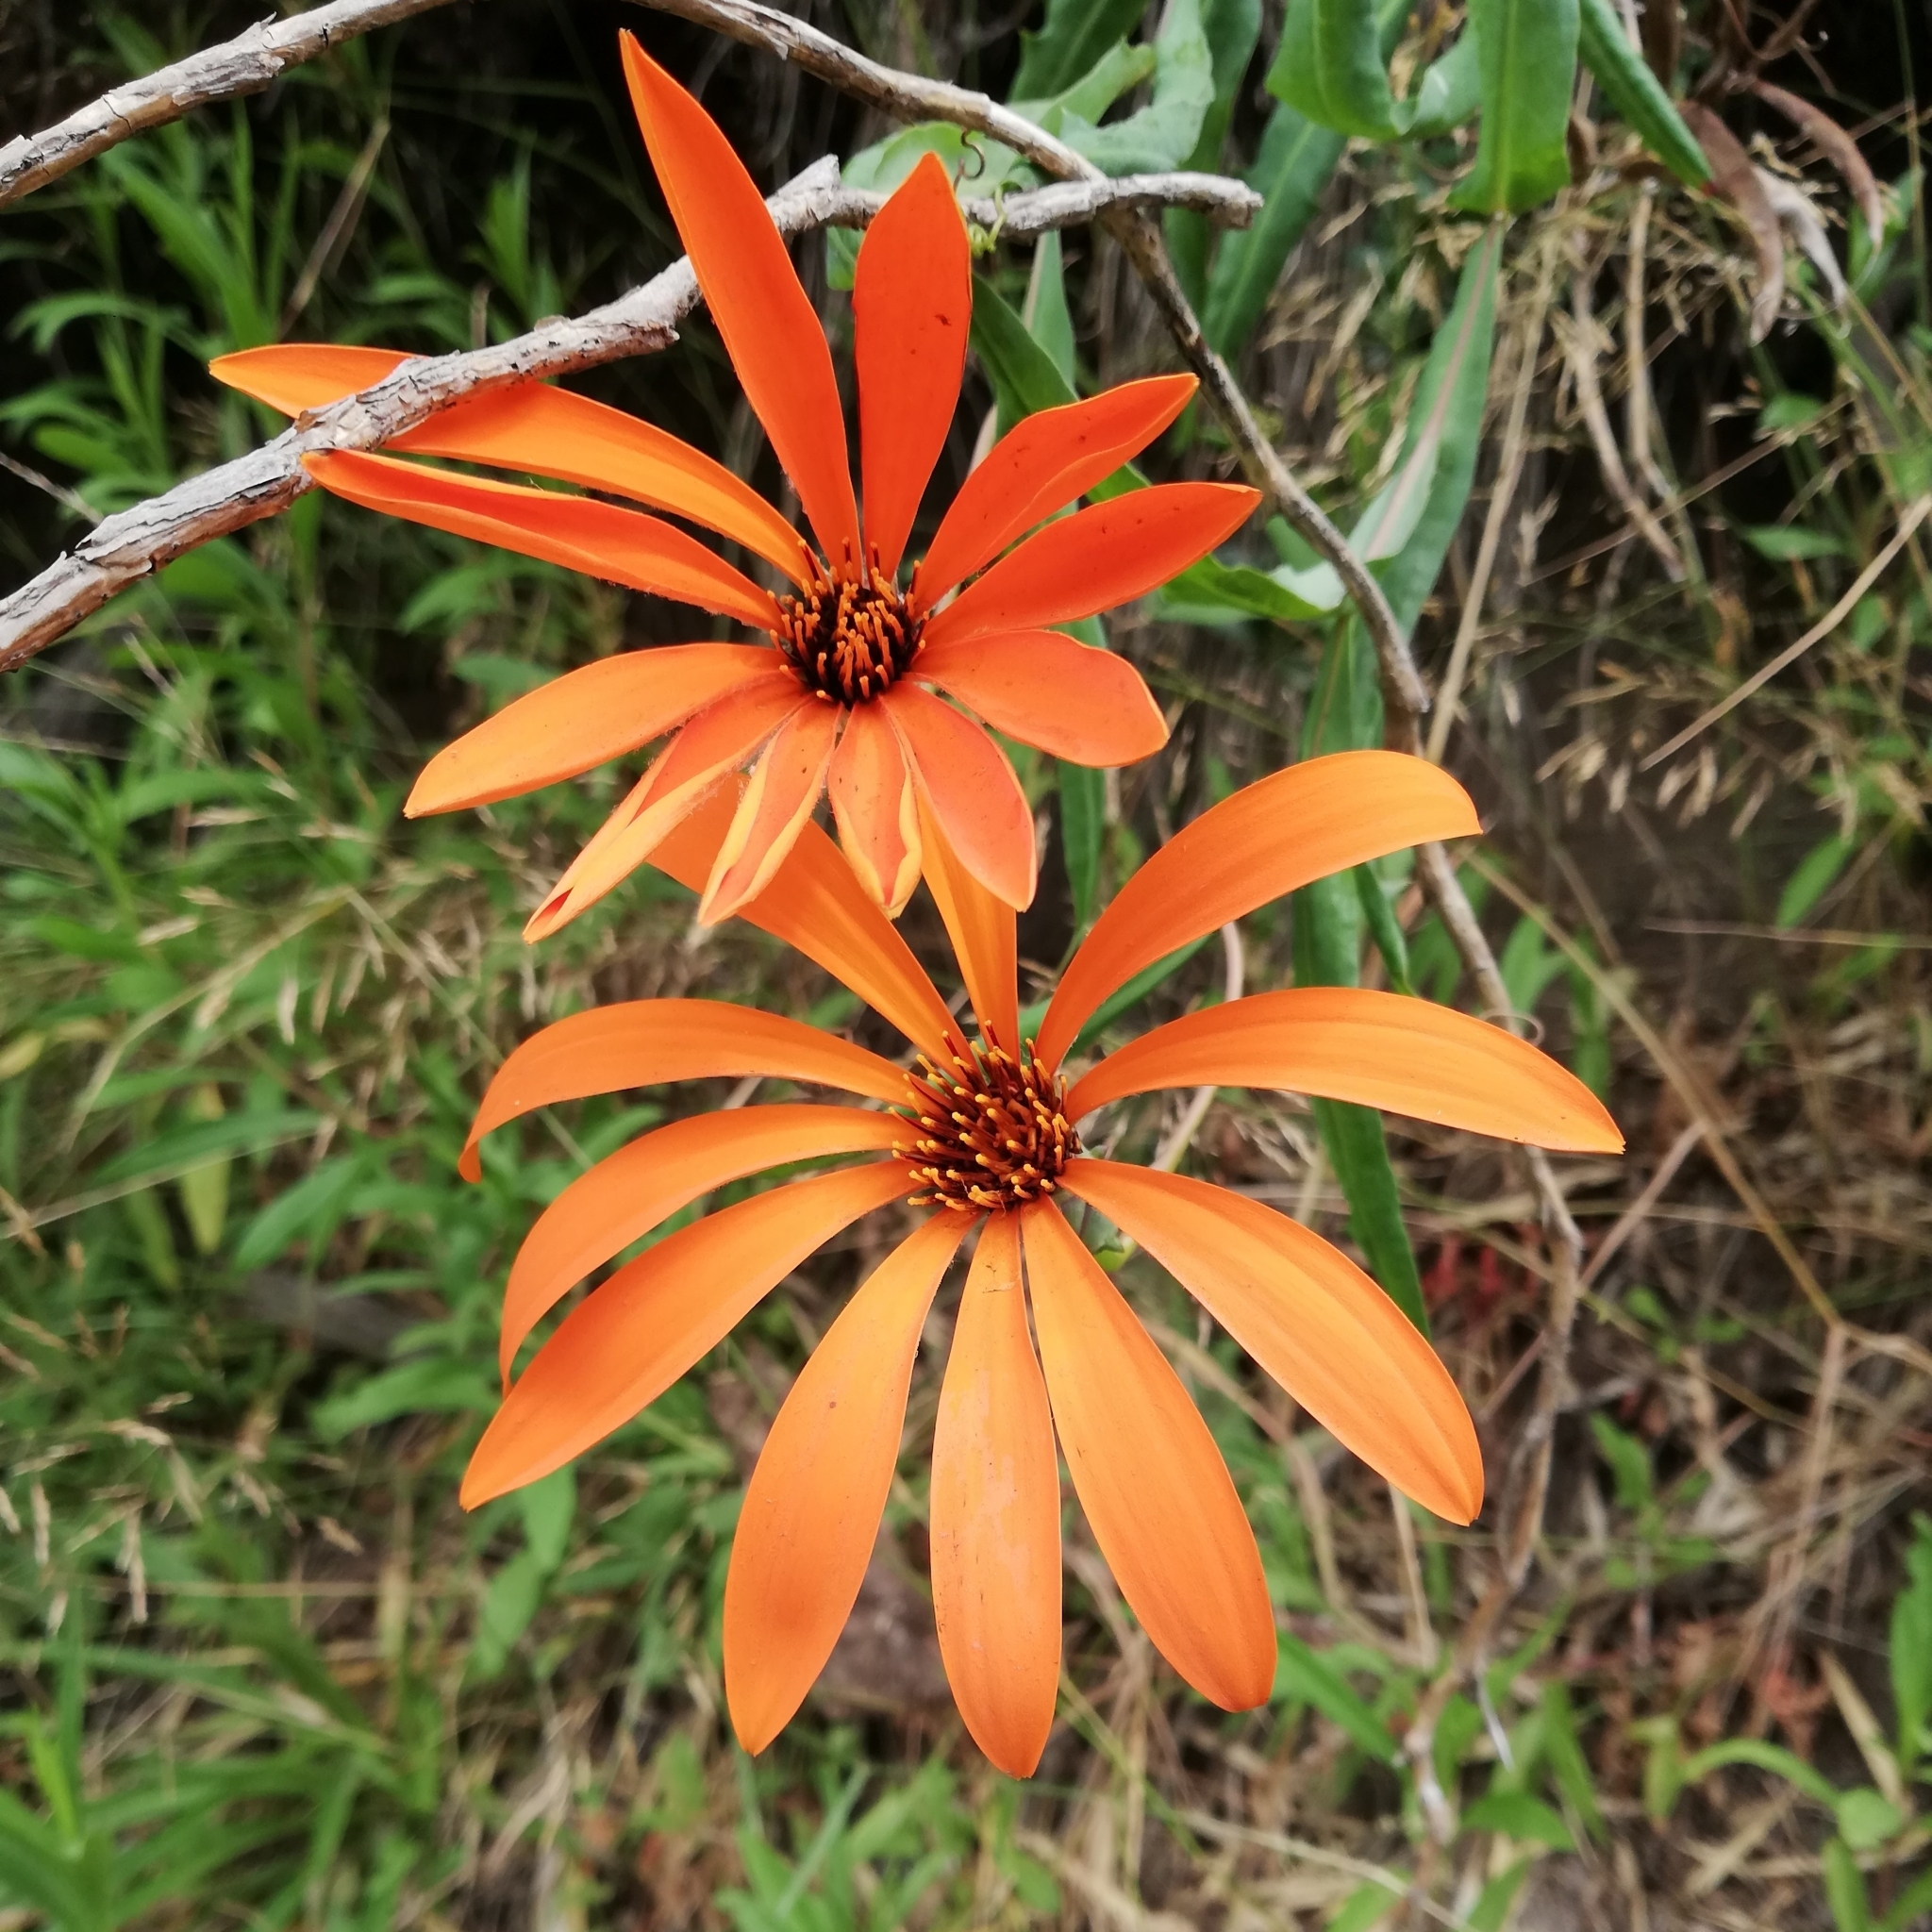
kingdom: Plantae
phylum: Tracheophyta
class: Magnoliopsida
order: Asterales
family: Asteraceae
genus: Mutisia
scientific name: Mutisia decurrens
